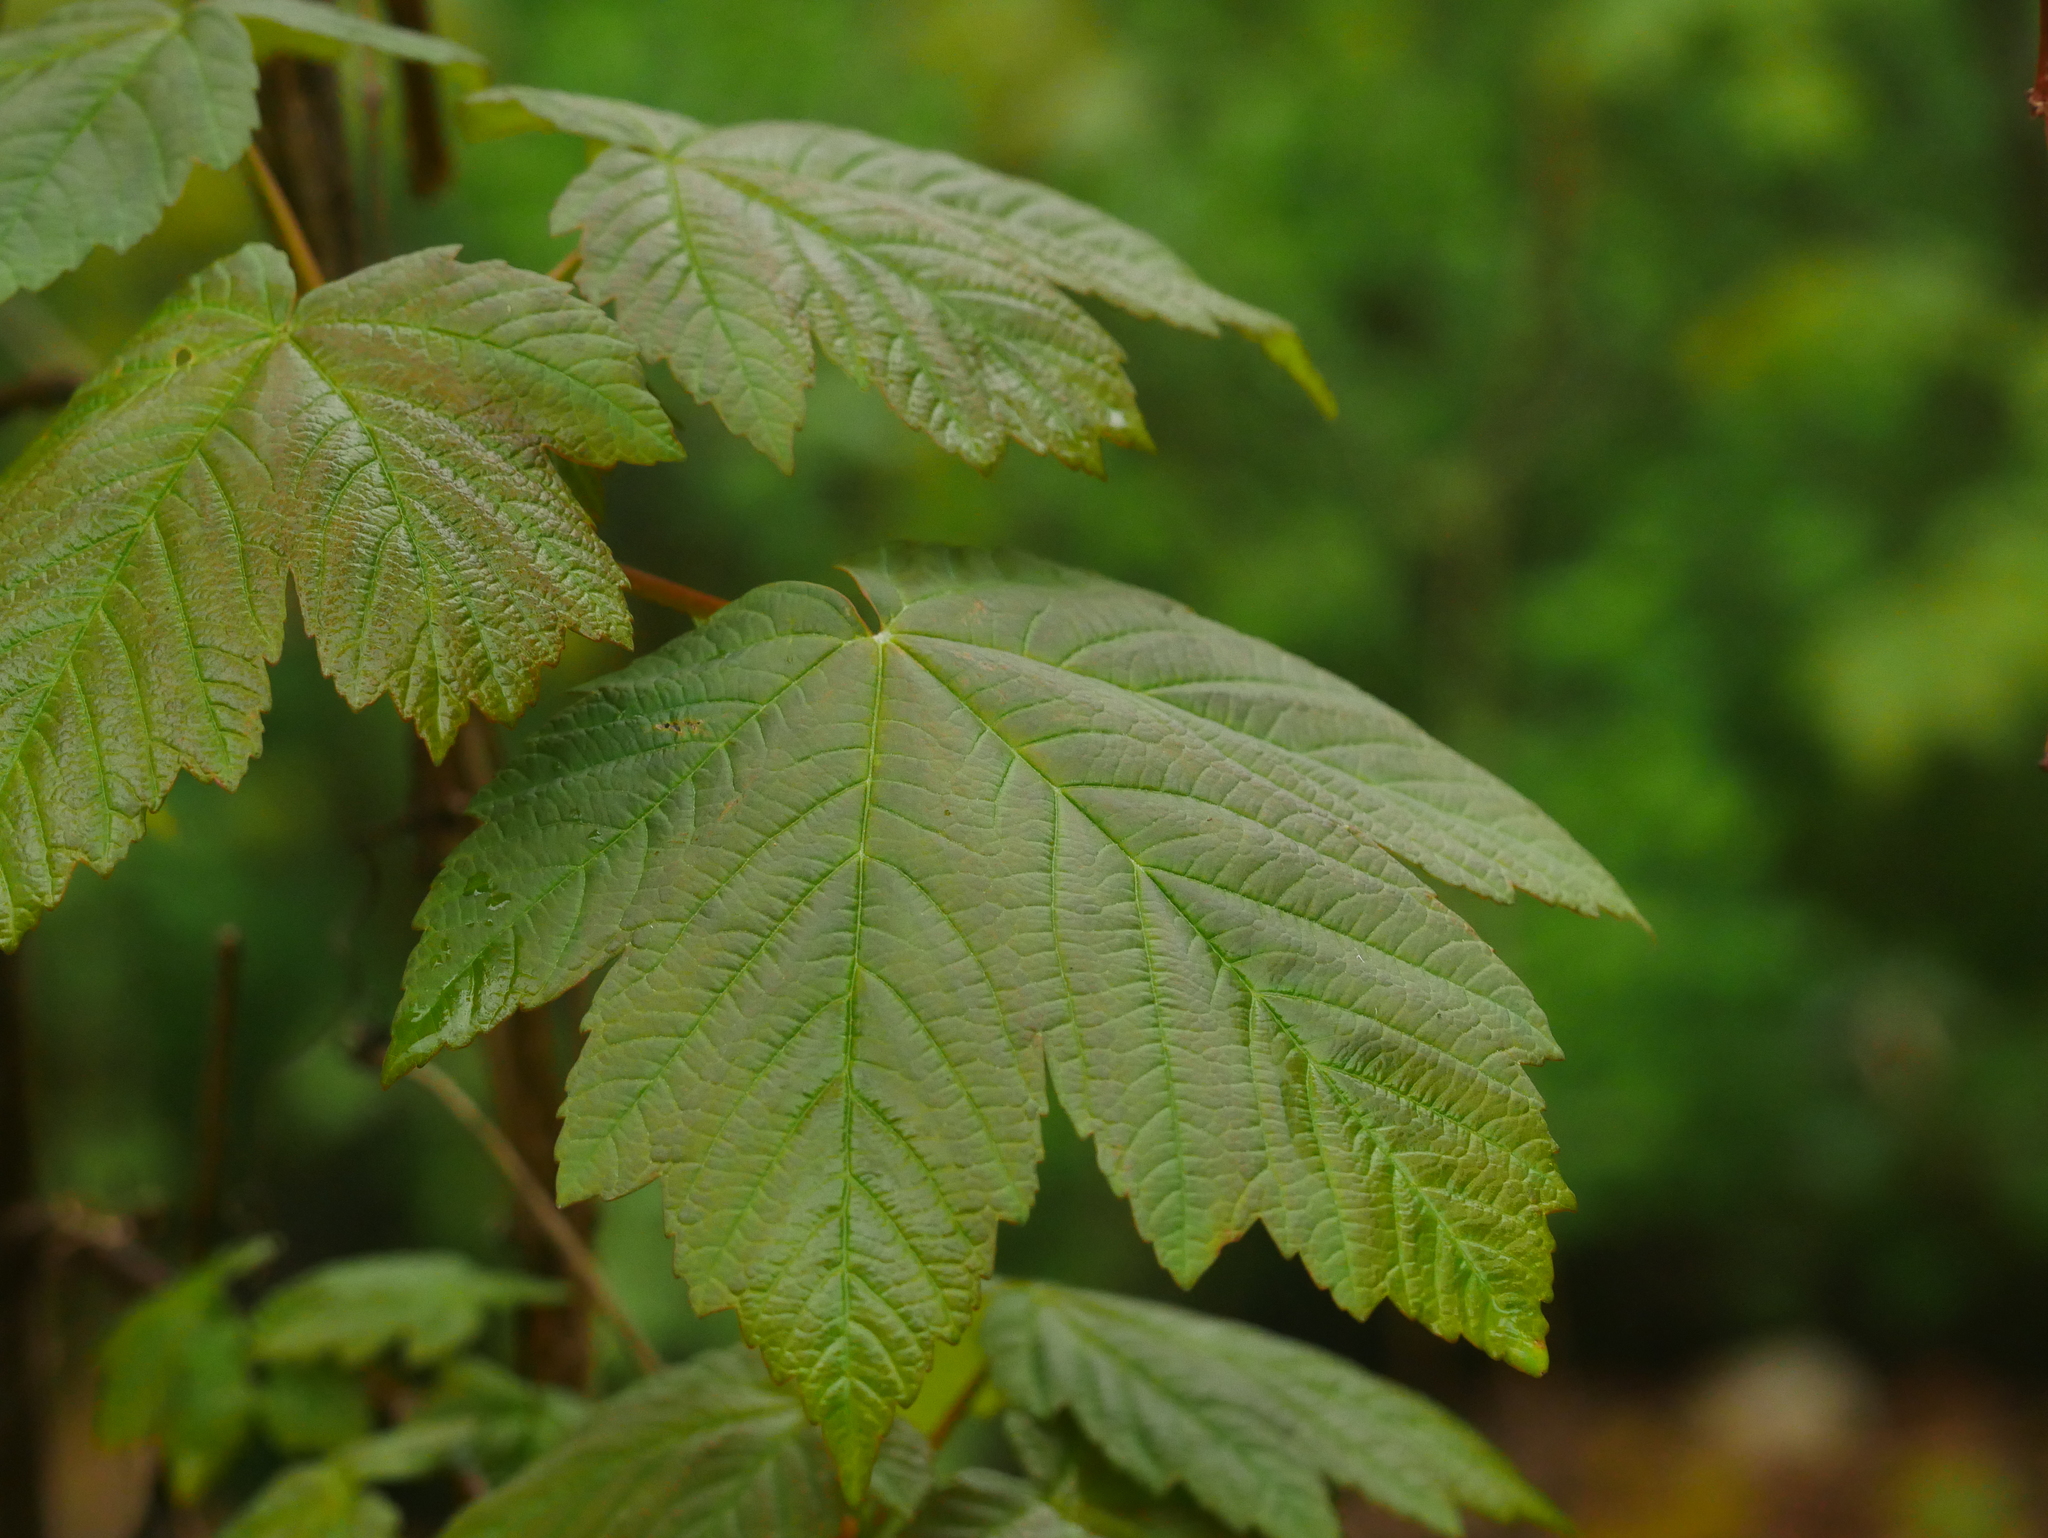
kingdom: Plantae
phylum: Tracheophyta
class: Magnoliopsida
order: Sapindales
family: Sapindaceae
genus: Acer
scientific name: Acer pseudoplatanus
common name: Sycamore
